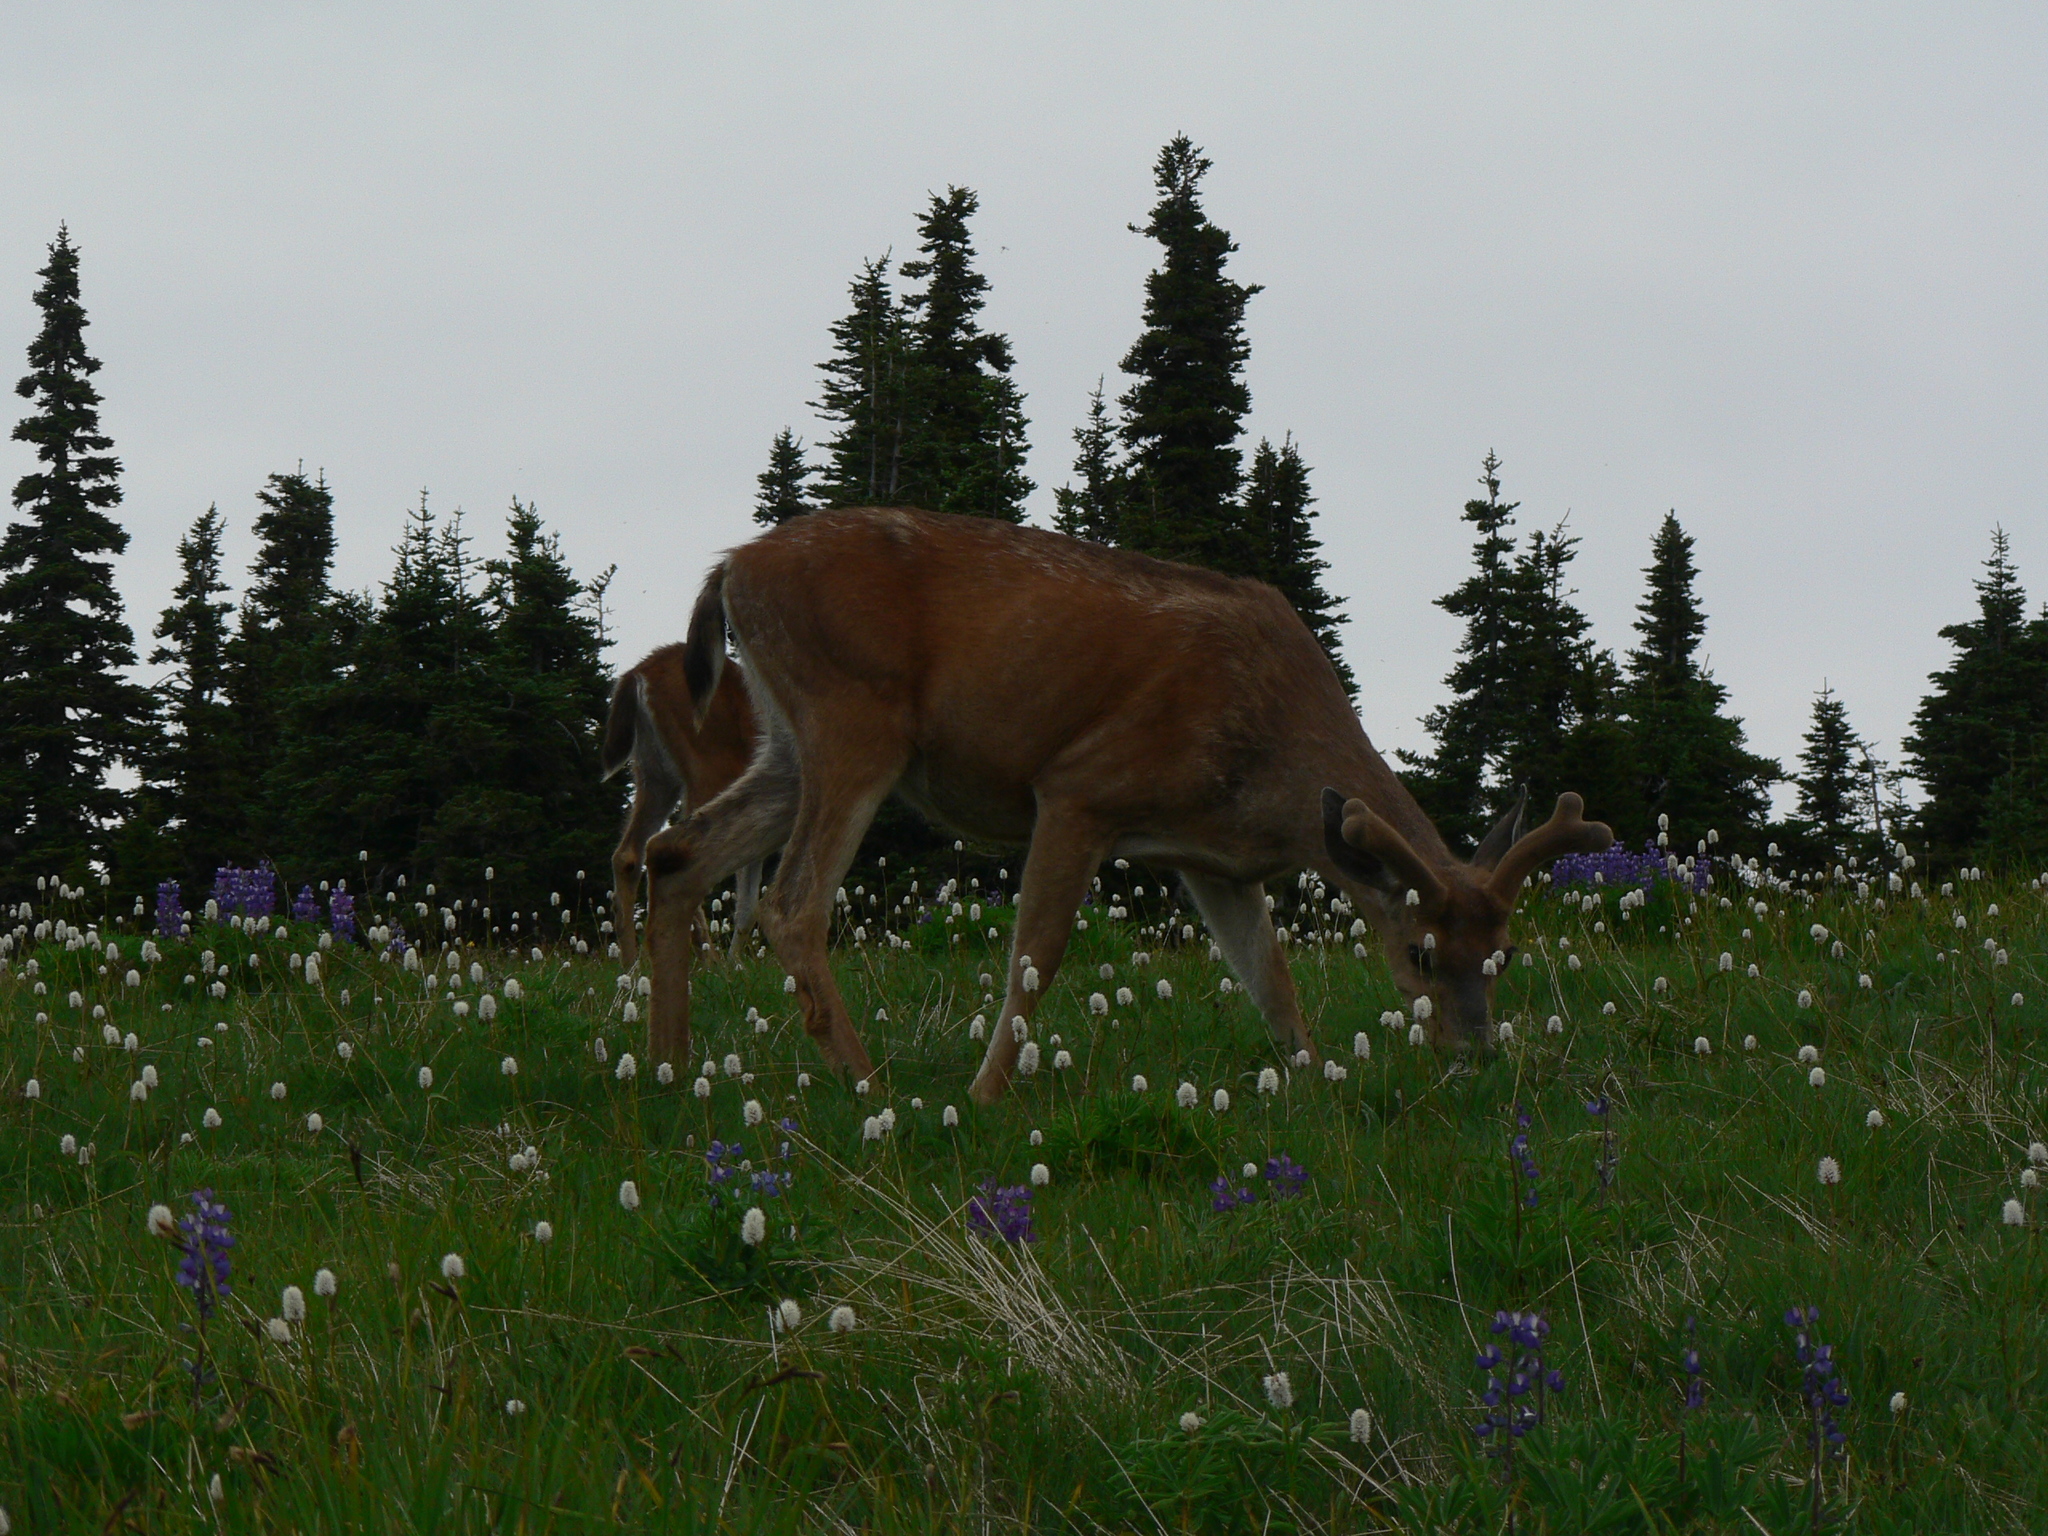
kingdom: Animalia
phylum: Chordata
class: Mammalia
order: Artiodactyla
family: Cervidae
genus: Odocoileus
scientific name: Odocoileus hemionus
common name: Mule deer
